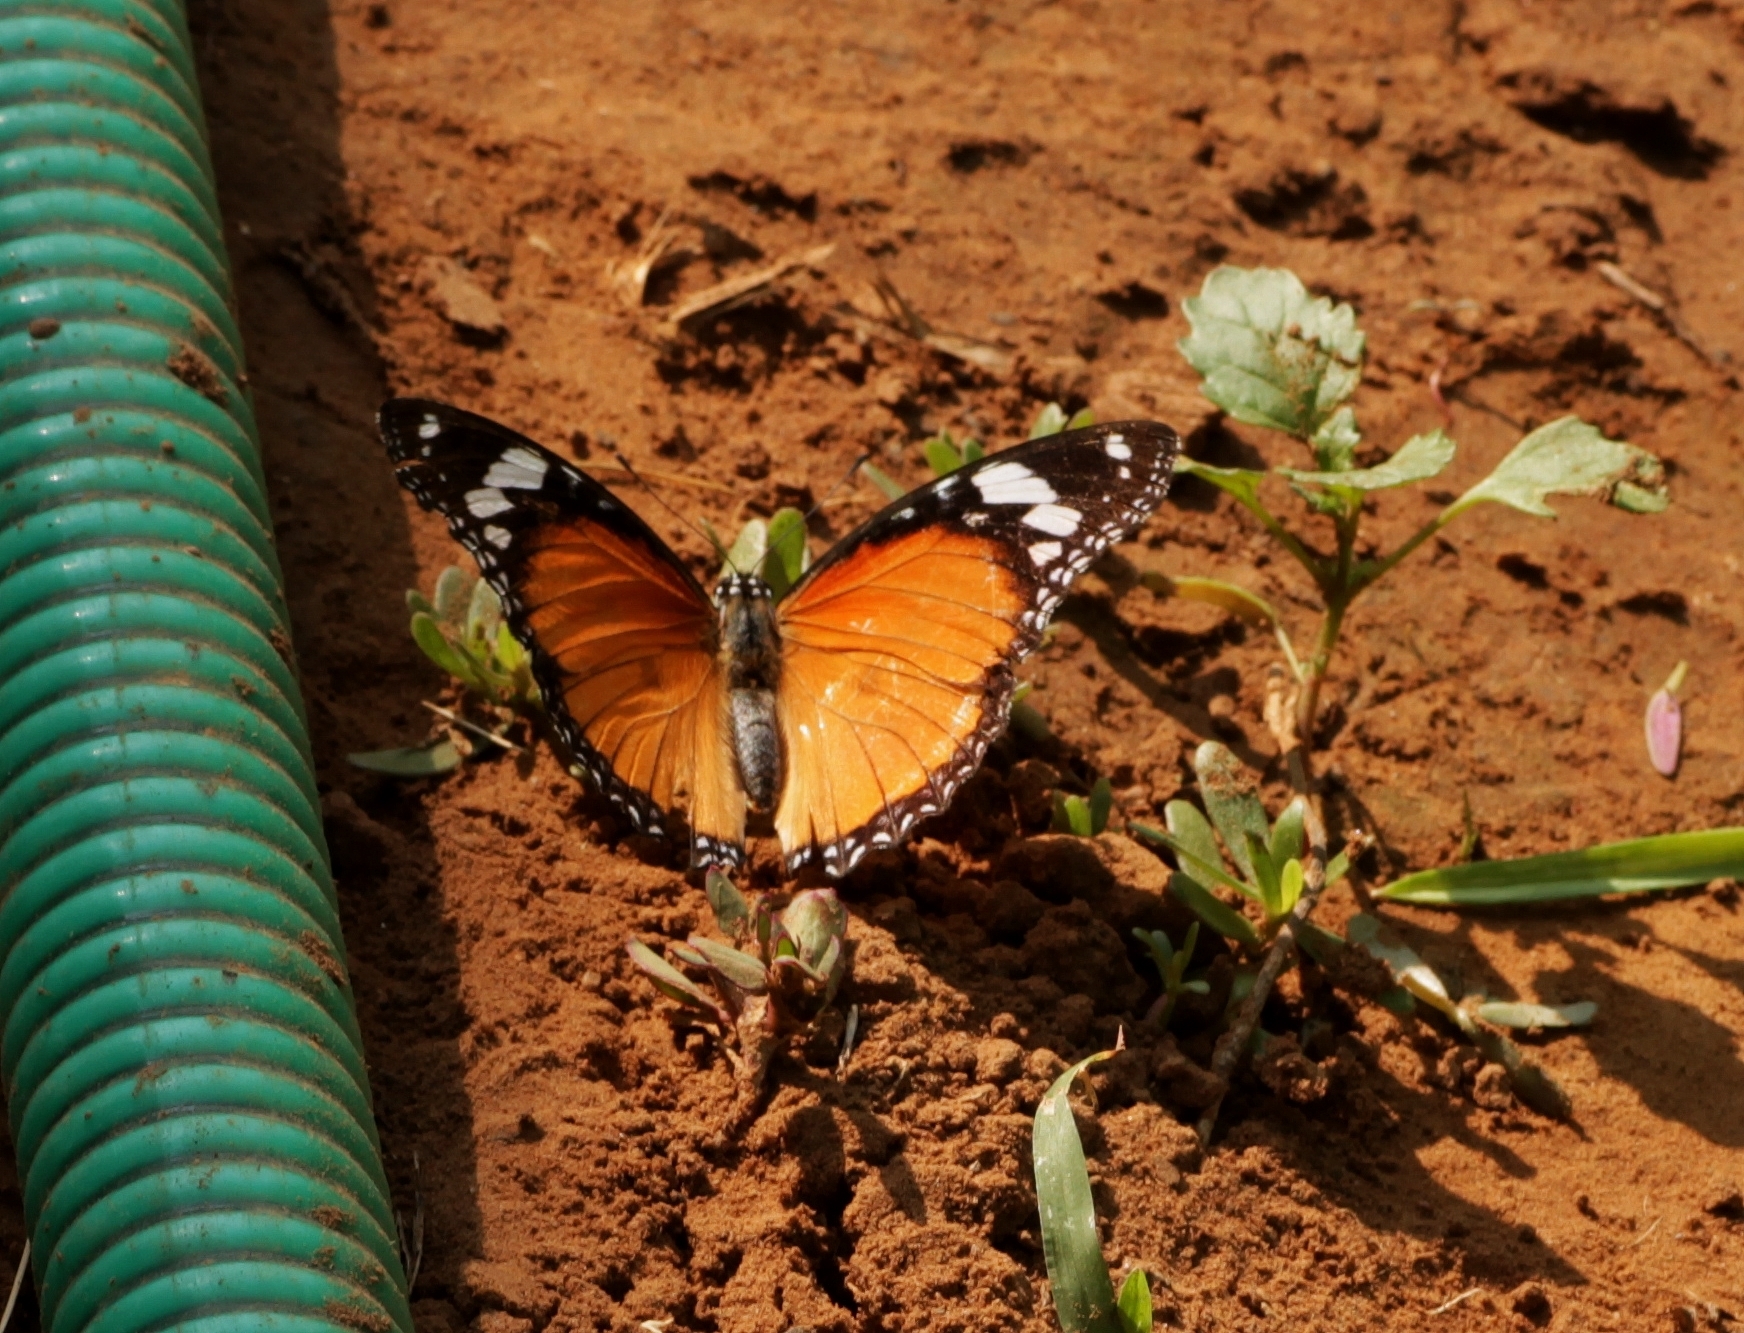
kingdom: Animalia
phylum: Arthropoda
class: Insecta
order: Lepidoptera
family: Nymphalidae
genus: Hypolimnas
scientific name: Hypolimnas misippus
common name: False plain tiger
